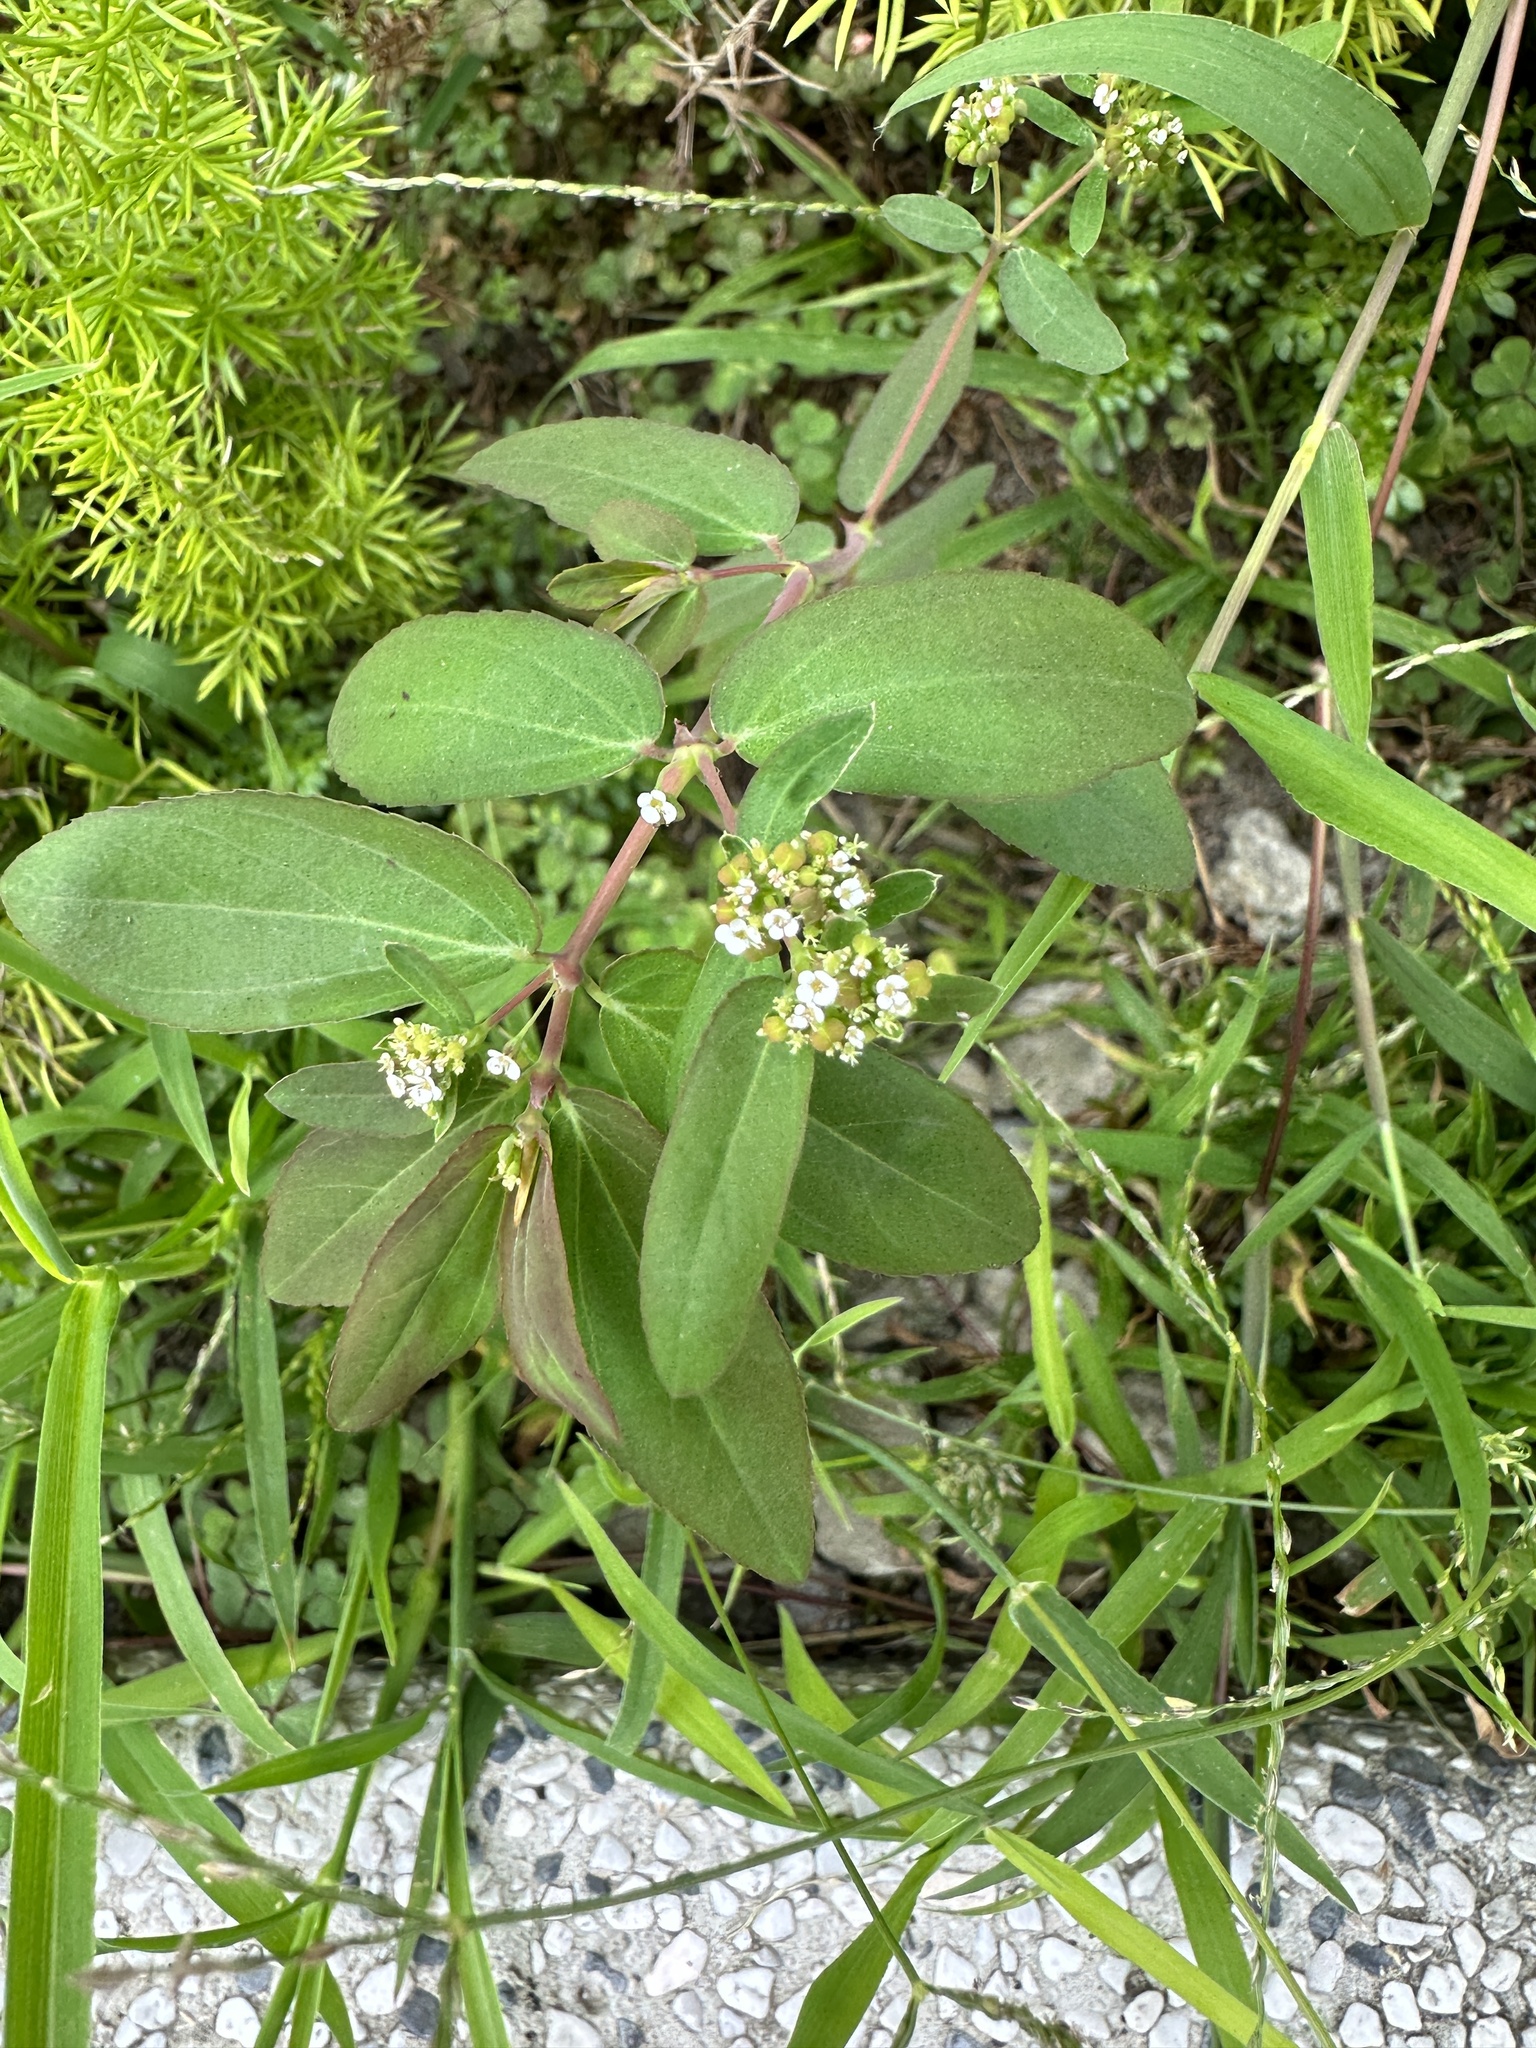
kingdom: Plantae
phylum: Tracheophyta
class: Magnoliopsida
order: Malpighiales
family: Euphorbiaceae
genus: Euphorbia
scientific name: Euphorbia hypericifolia
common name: Graceful sandmat
